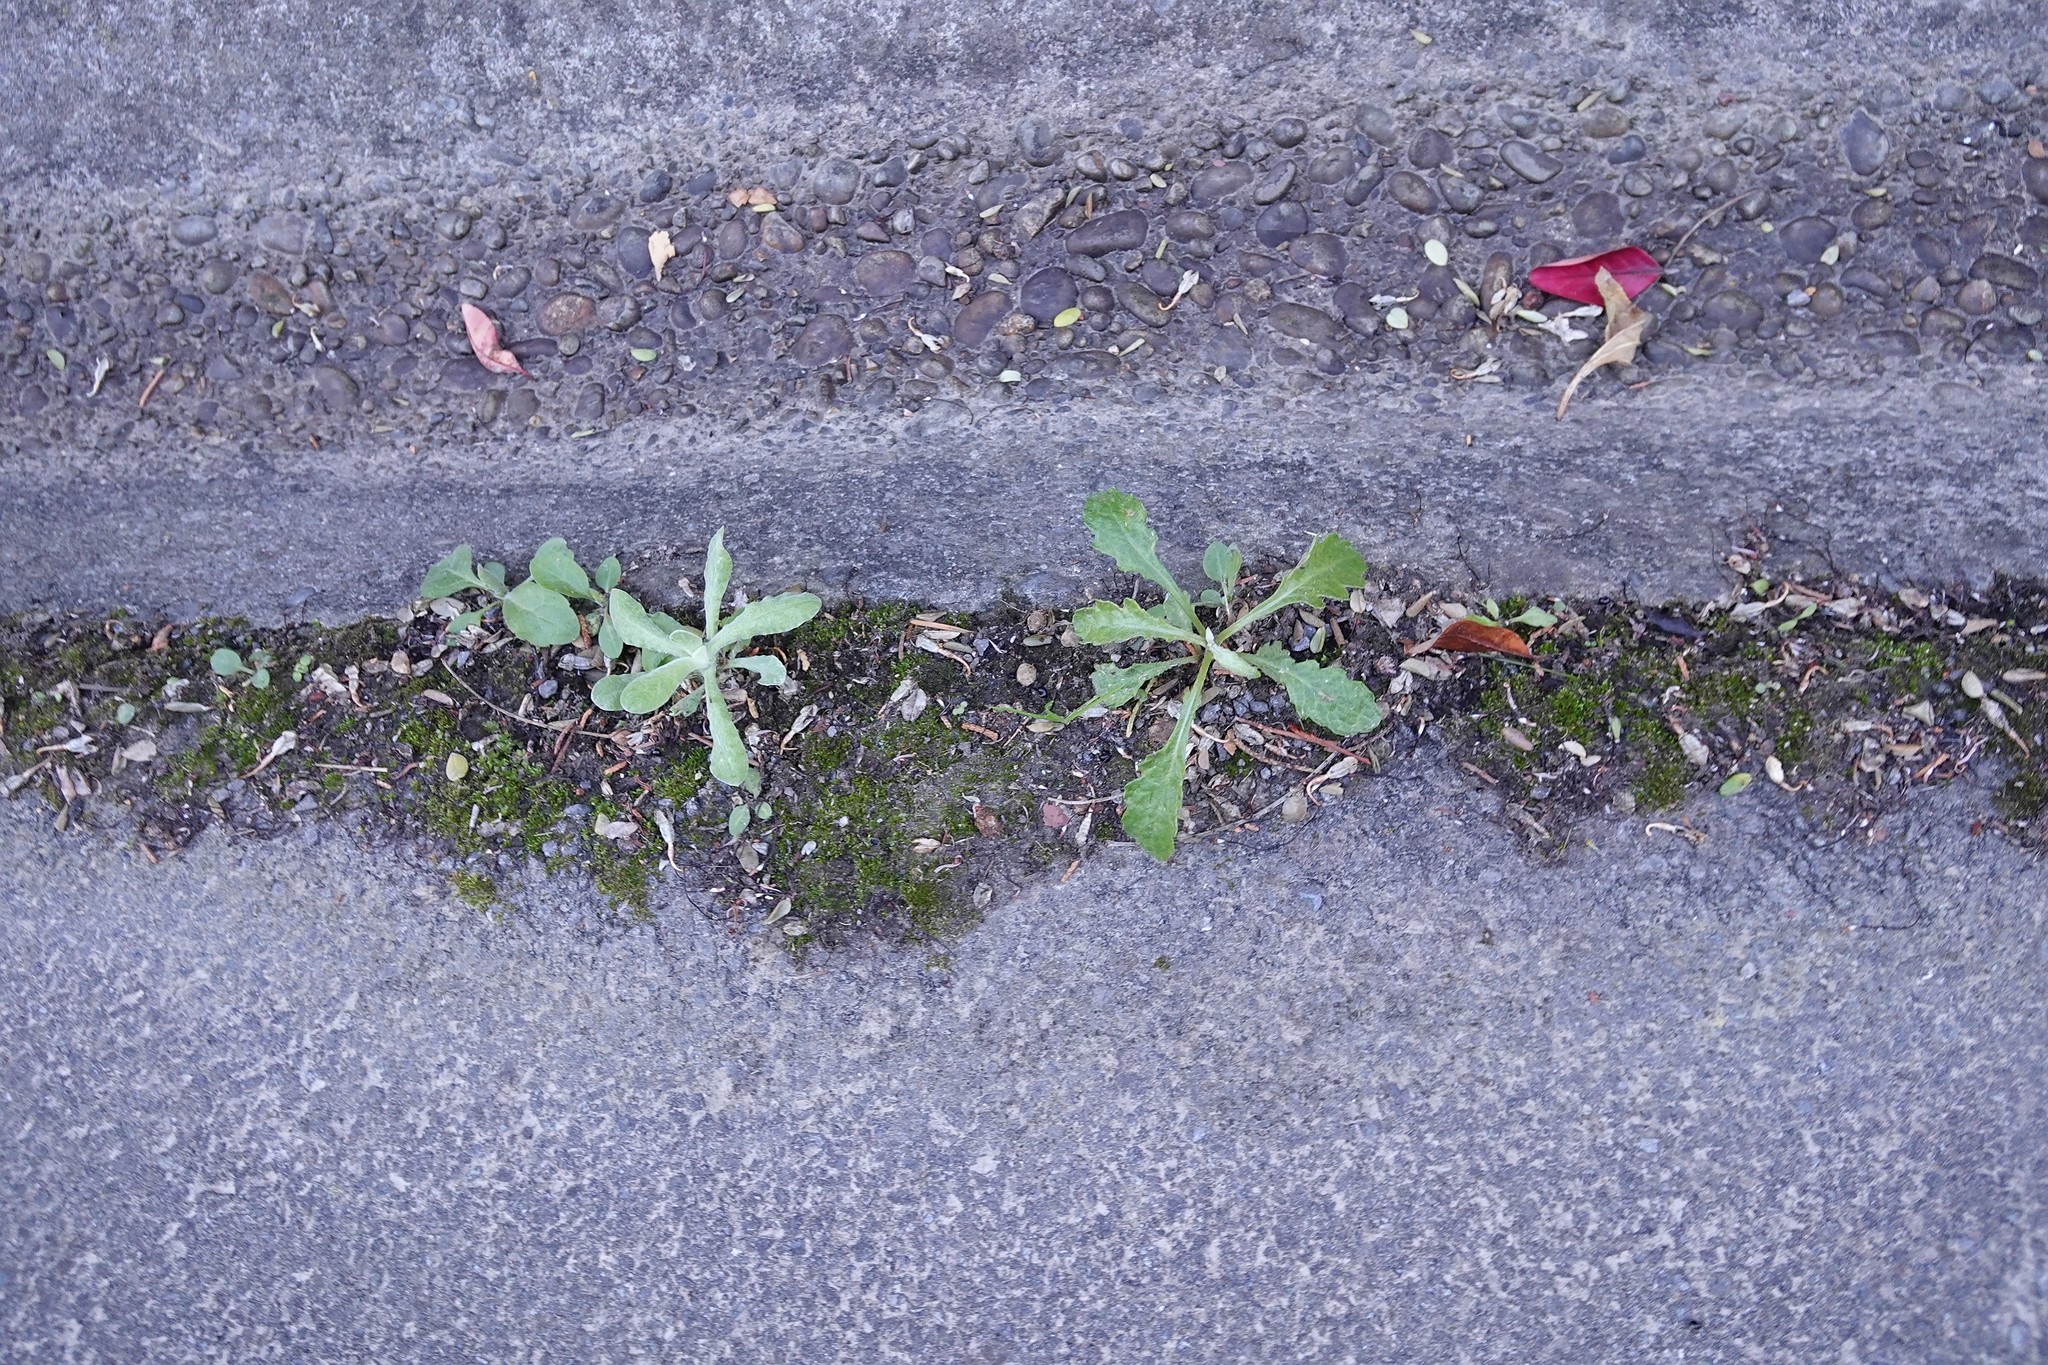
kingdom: Plantae
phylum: Tracheophyta
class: Magnoliopsida
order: Asterales
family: Asteraceae
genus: Helichrysum
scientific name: Helichrysum luteoalbum
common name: Daisy
